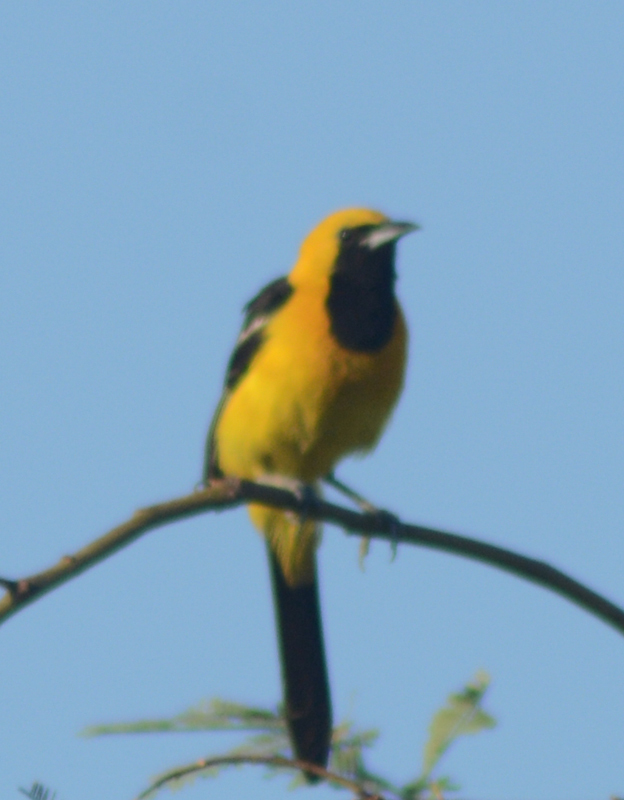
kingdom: Animalia
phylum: Chordata
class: Aves
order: Passeriformes
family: Icteridae
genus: Icterus
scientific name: Icterus cucullatus
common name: Hooded oriole
